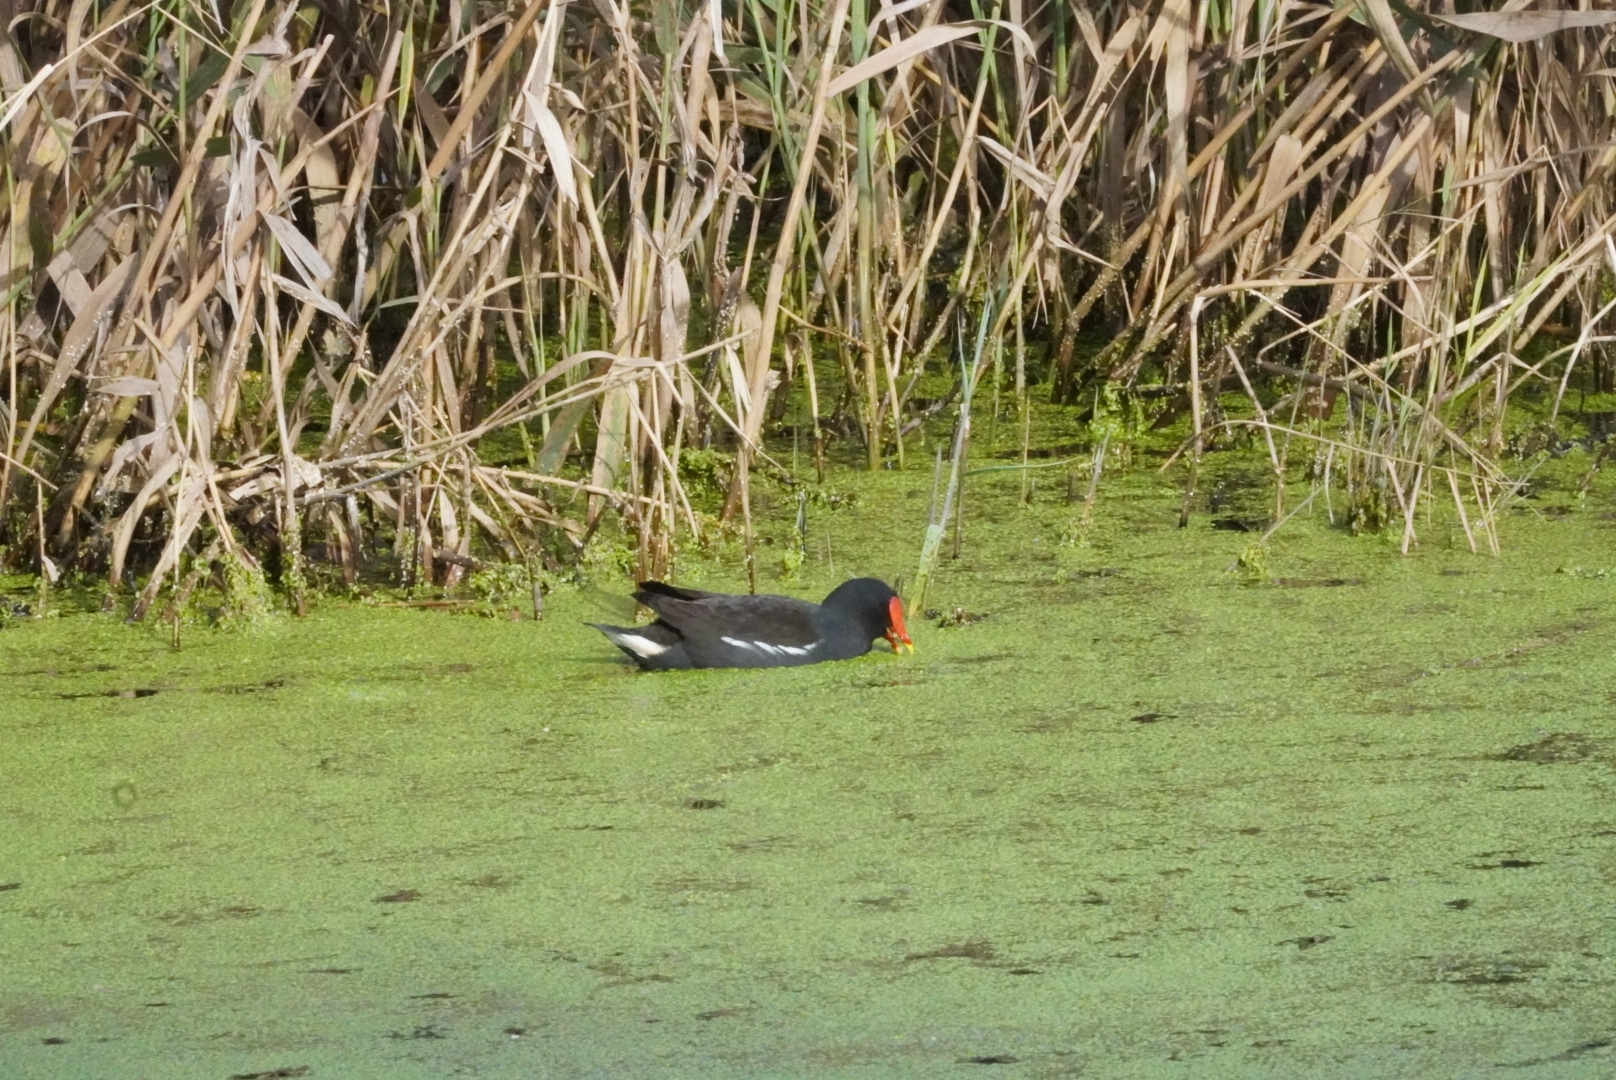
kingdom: Animalia
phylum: Chordata
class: Aves
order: Gruiformes
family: Rallidae
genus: Gallinula
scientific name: Gallinula chloropus
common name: Common moorhen
